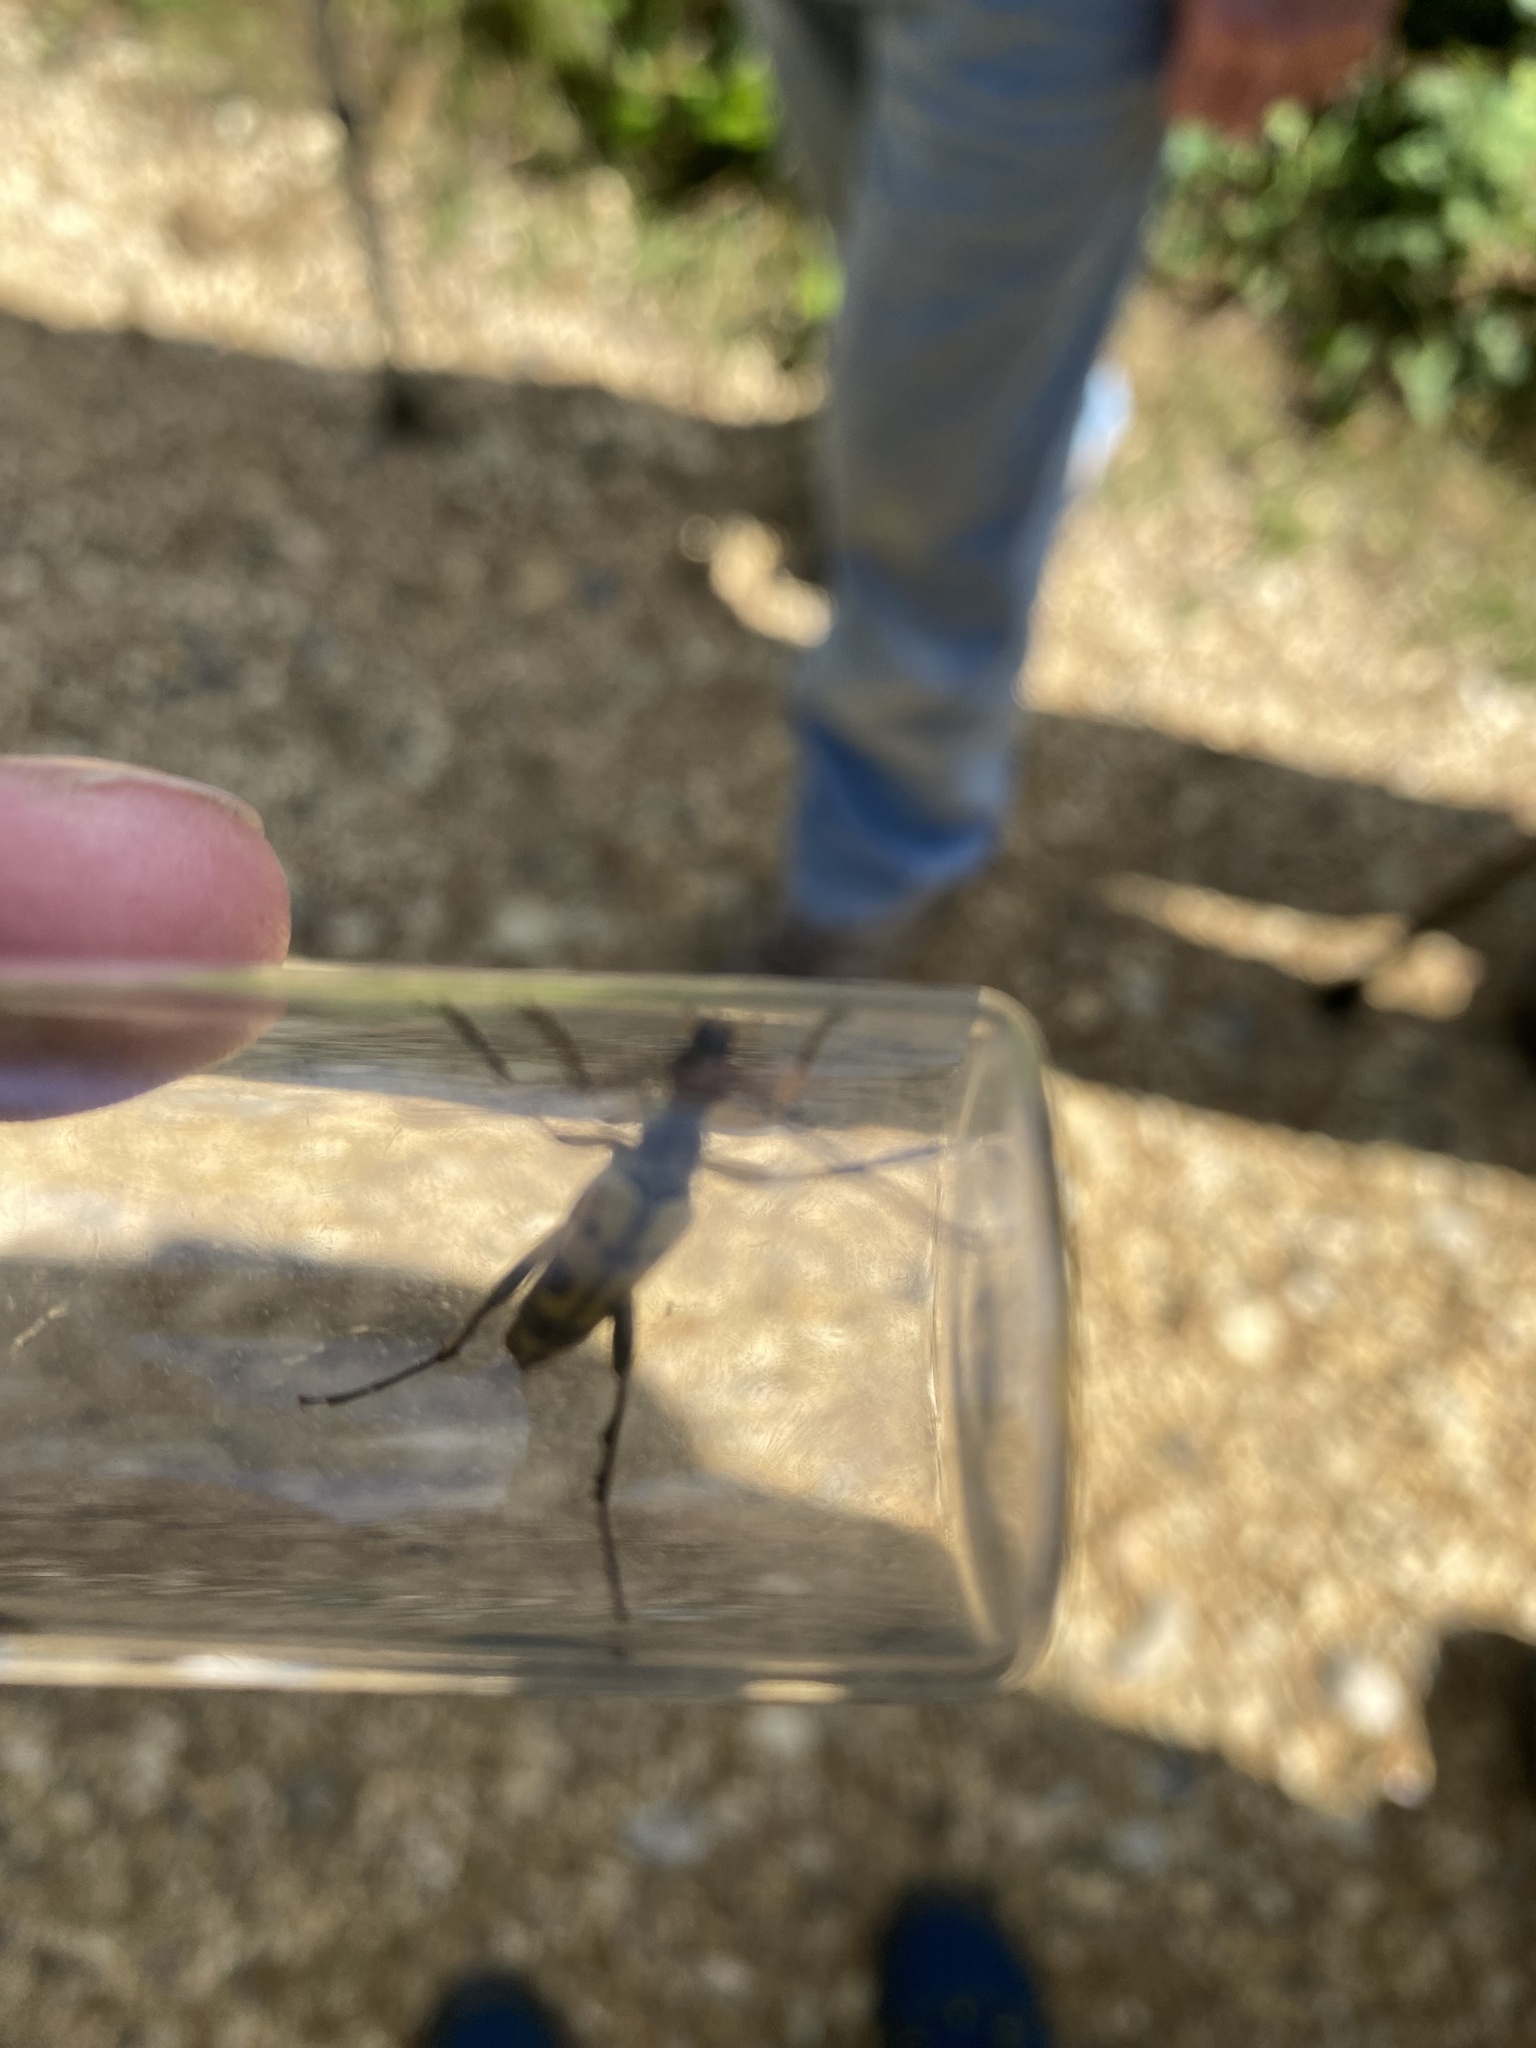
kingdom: Animalia
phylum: Arthropoda
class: Insecta
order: Coleoptera
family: Cerambycidae
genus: Rutpela
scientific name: Rutpela maculata
